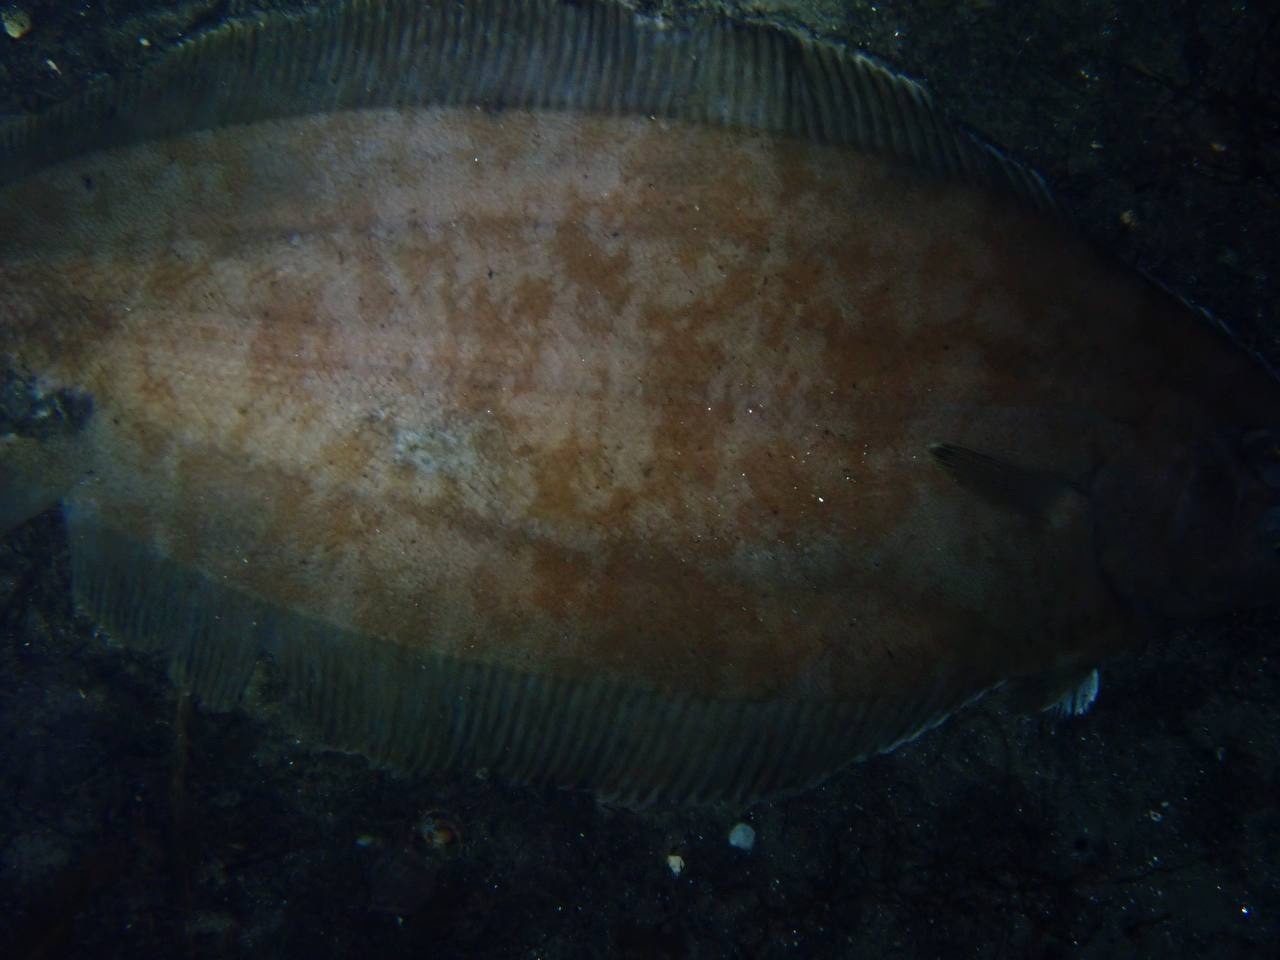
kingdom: Animalia
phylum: Chordata
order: Pleuronectiformes
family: Pleuronectidae
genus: Glyptocephalus
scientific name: Glyptocephalus cynoglossus
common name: Witch
